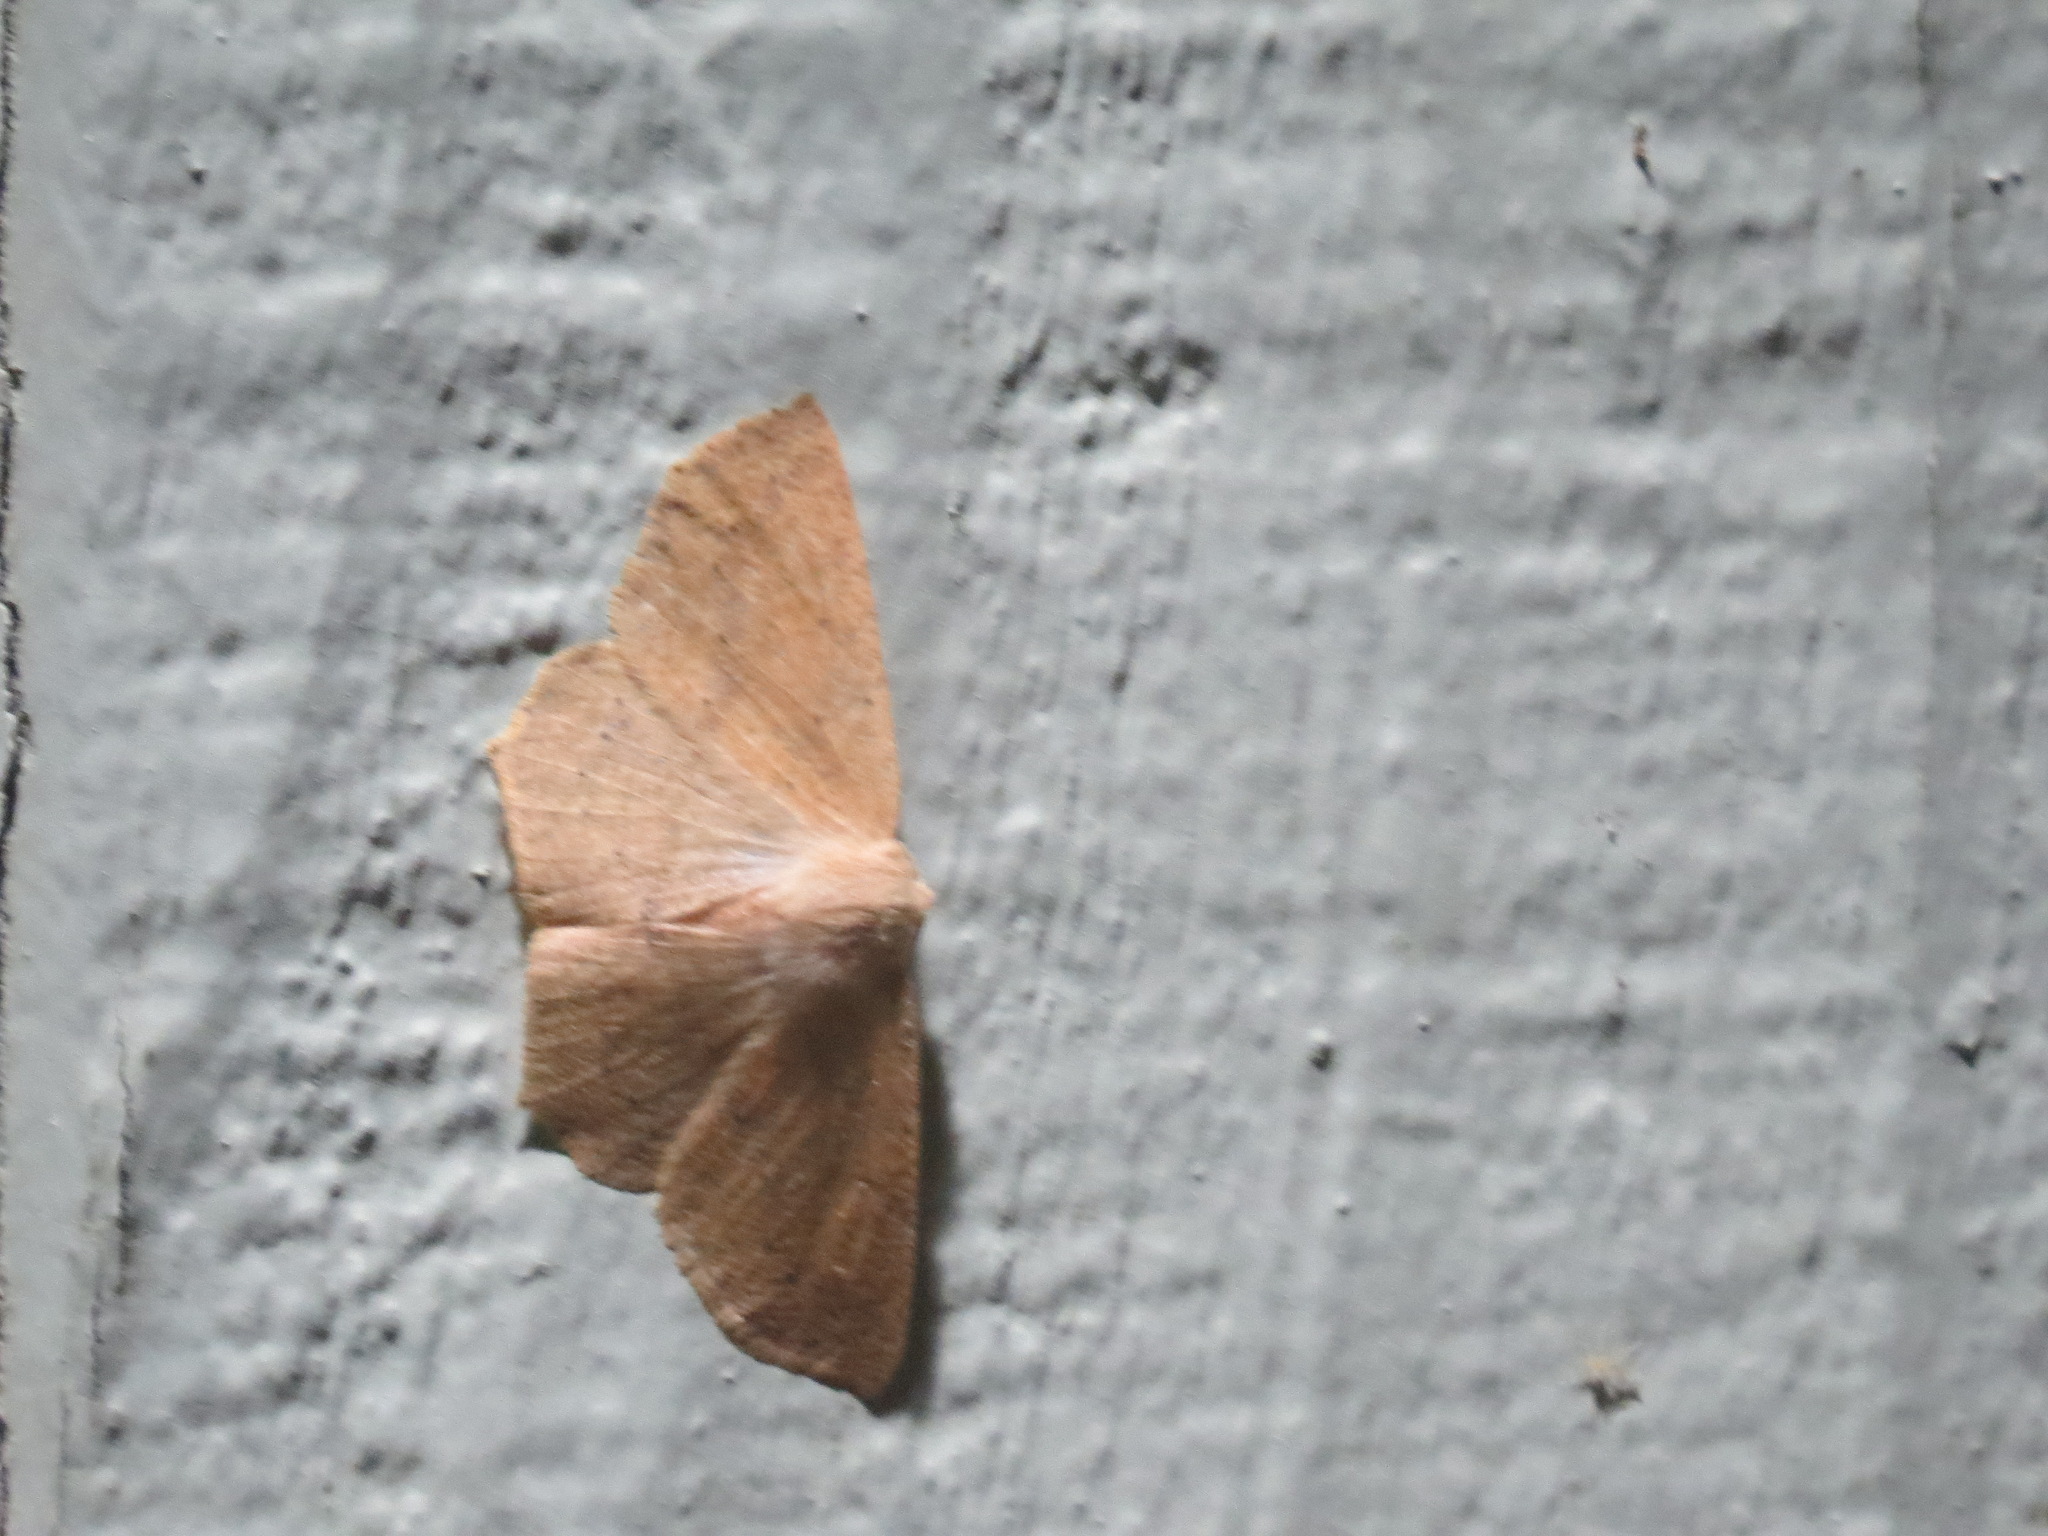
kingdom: Animalia
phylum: Arthropoda
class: Insecta
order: Lepidoptera
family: Geometridae
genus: Sabulodes
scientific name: Sabulodes aegrotata
